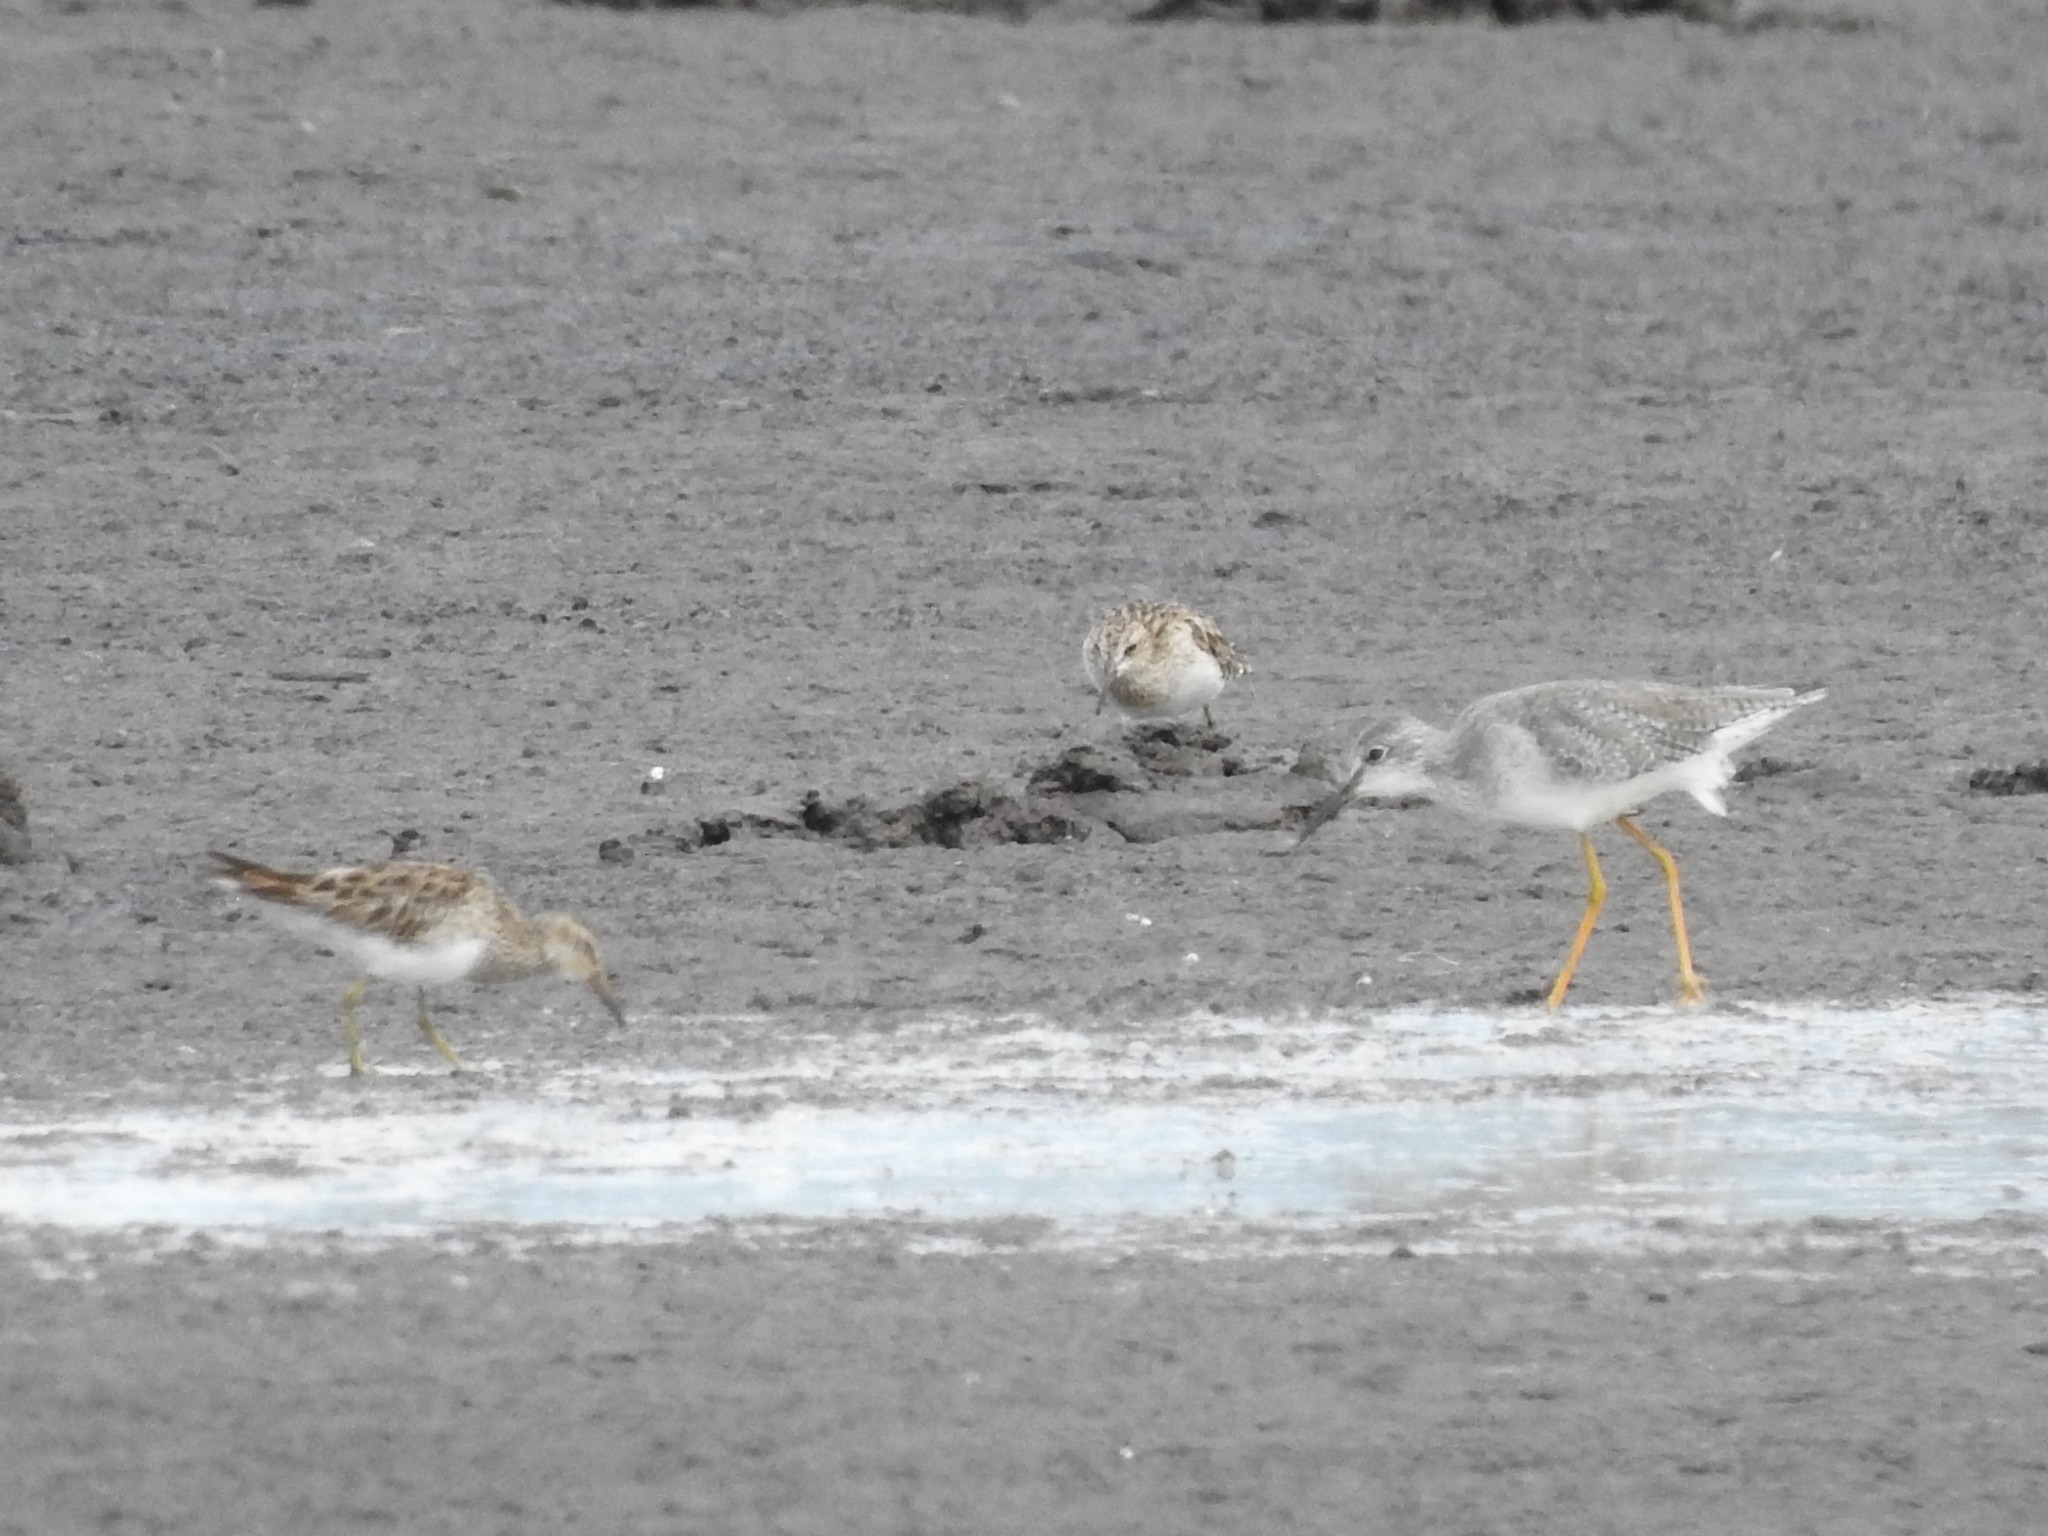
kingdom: Animalia
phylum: Chordata
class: Aves
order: Charadriiformes
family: Scolopacidae
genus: Tringa
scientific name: Tringa flavipes
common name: Lesser yellowlegs
